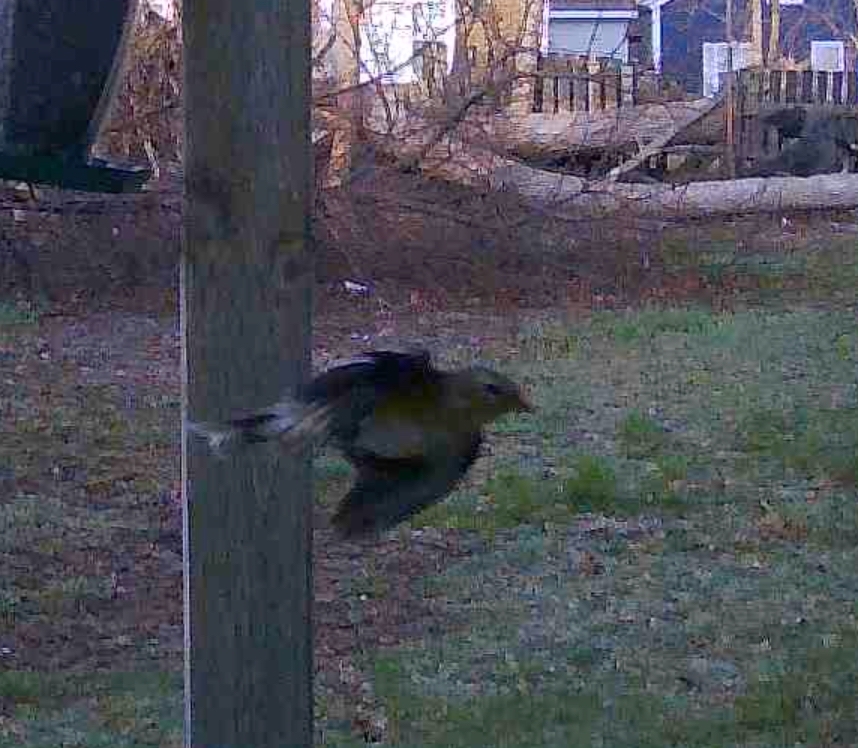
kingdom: Animalia
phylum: Chordata
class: Aves
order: Passeriformes
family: Fringillidae
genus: Spinus
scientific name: Spinus tristis
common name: American goldfinch
